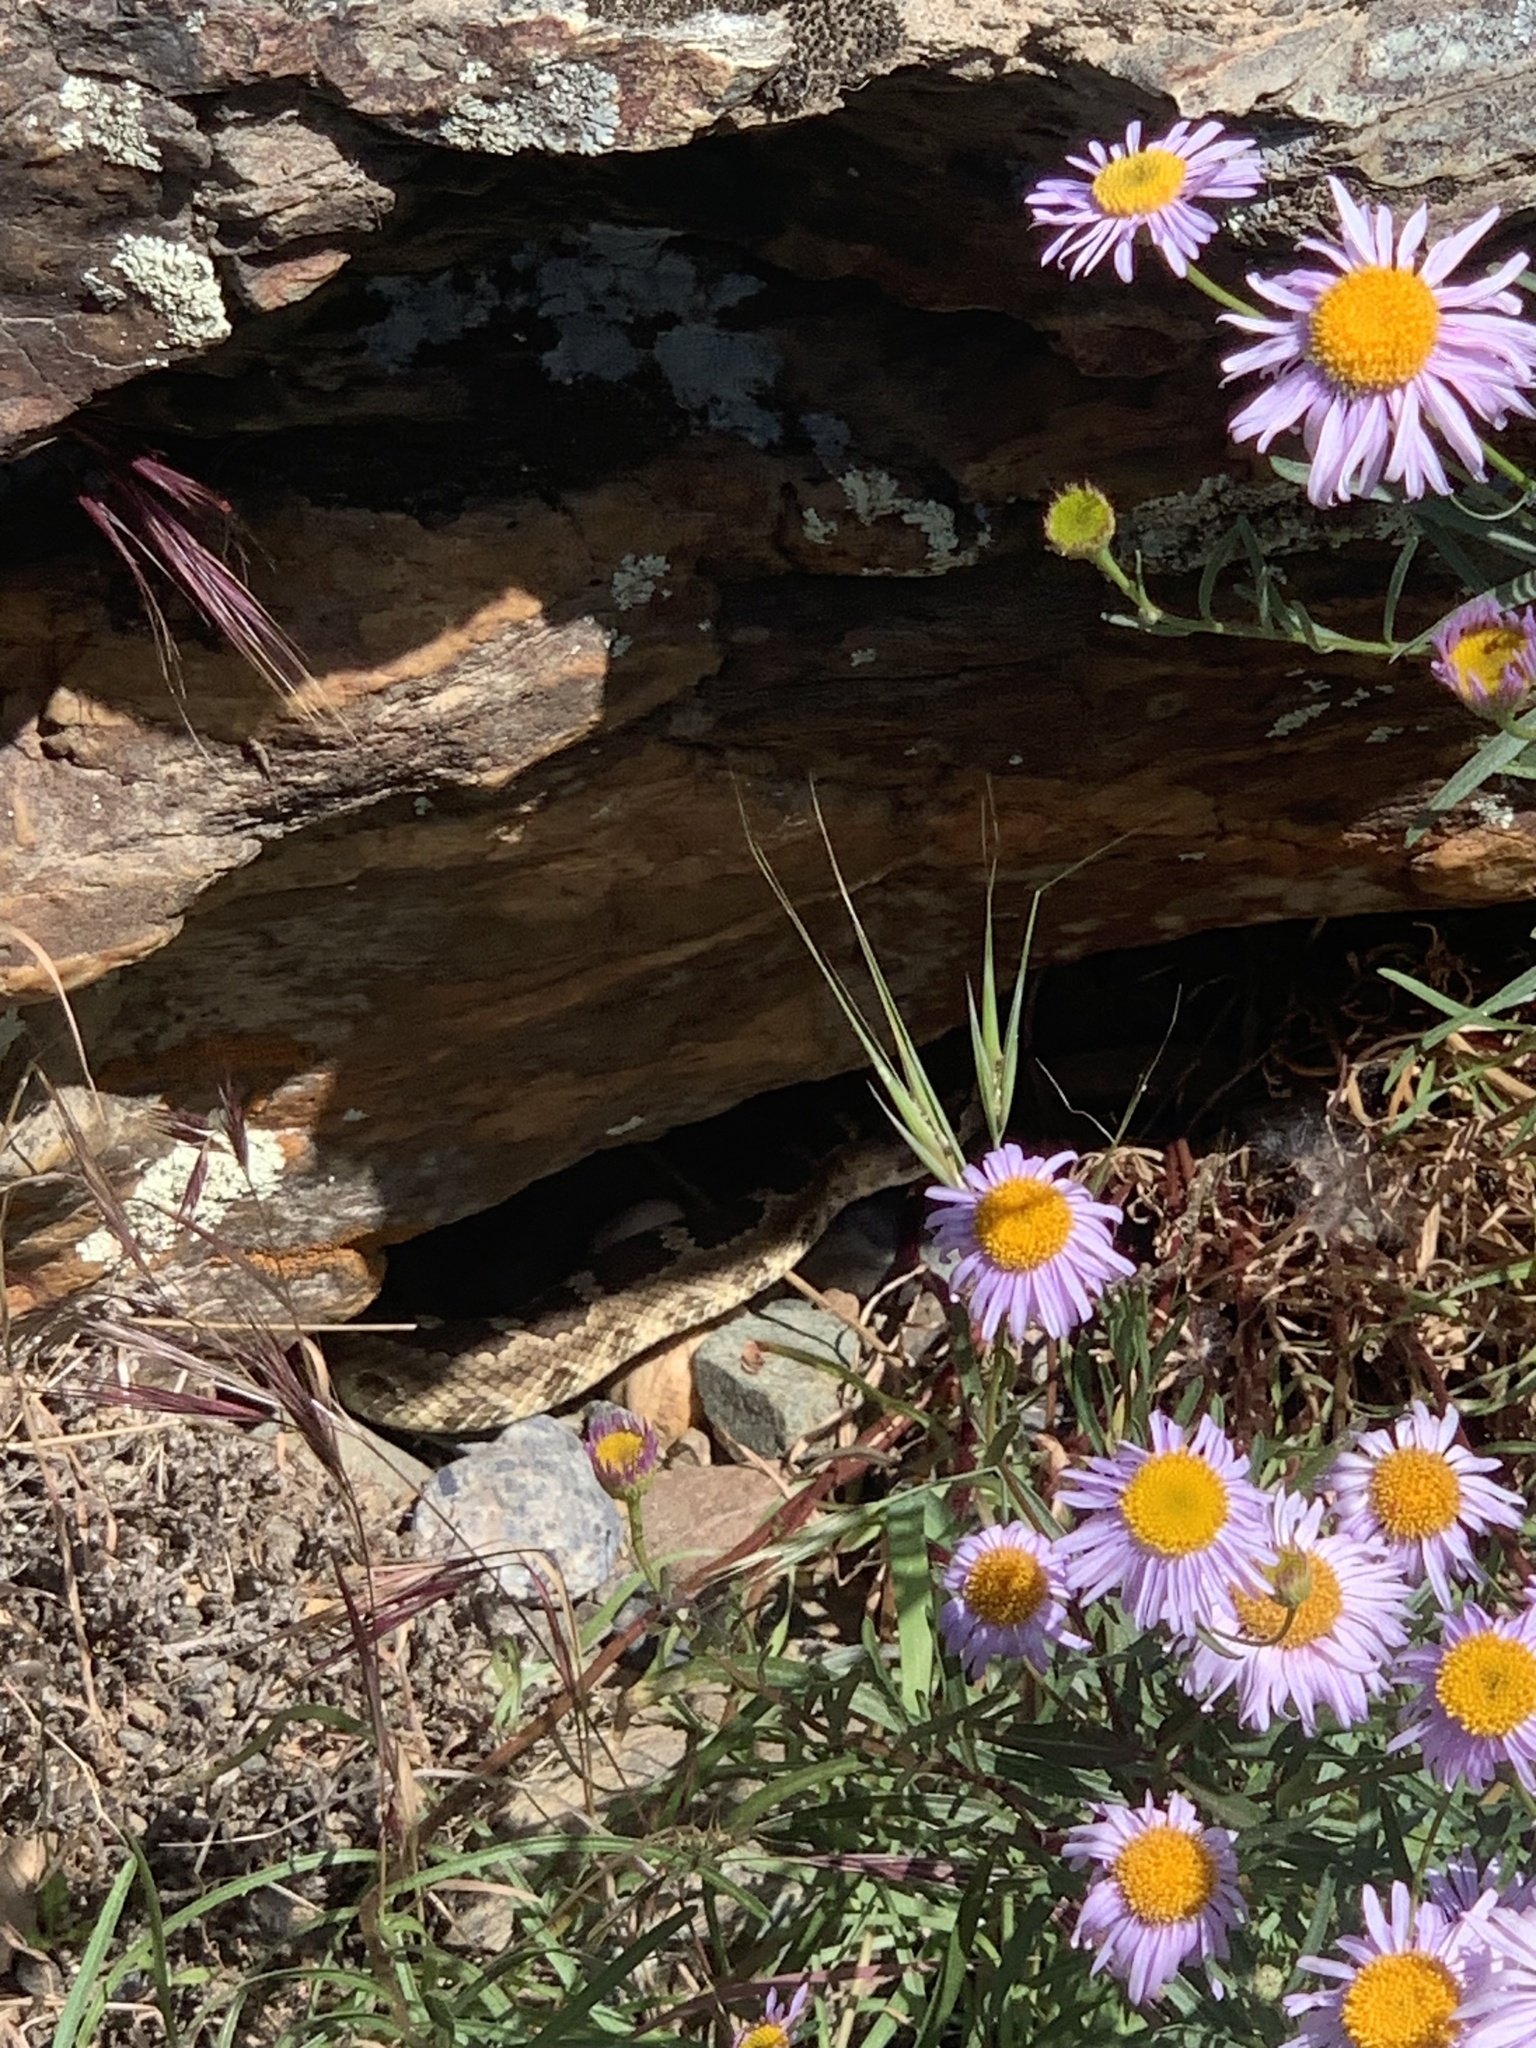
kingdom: Animalia
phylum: Chordata
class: Squamata
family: Viperidae
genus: Crotalus
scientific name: Crotalus oreganus
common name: Abyssus
